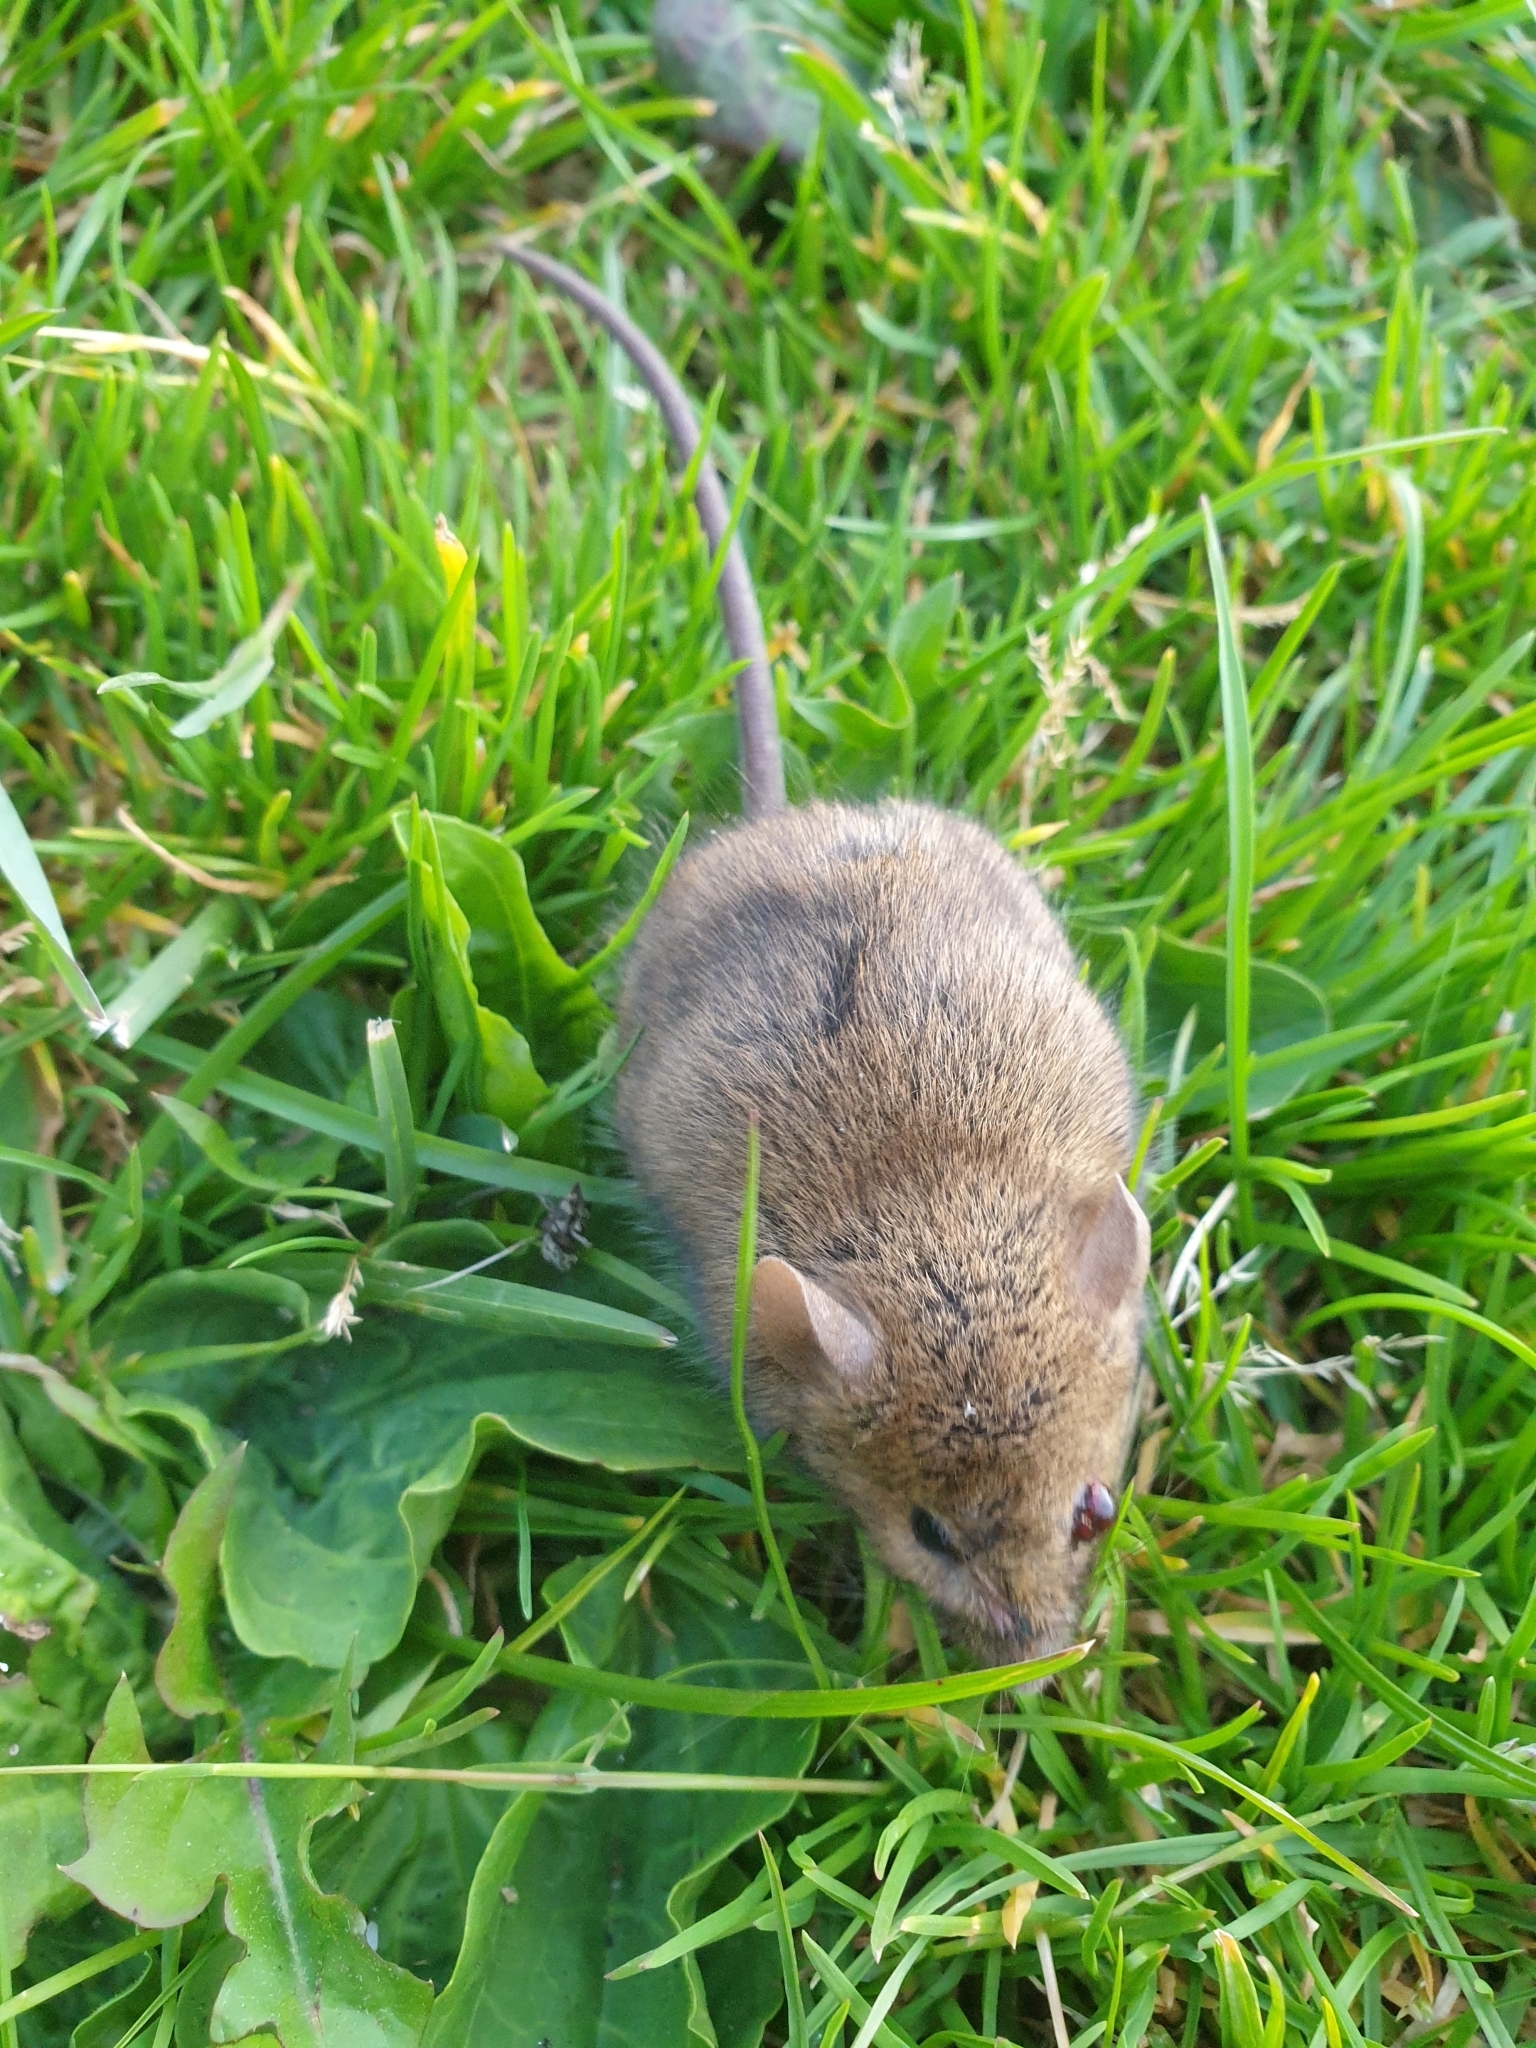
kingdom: Animalia
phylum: Chordata
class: Mammalia
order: Rodentia
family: Muridae
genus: Mus
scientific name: Mus musculus
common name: House mouse
